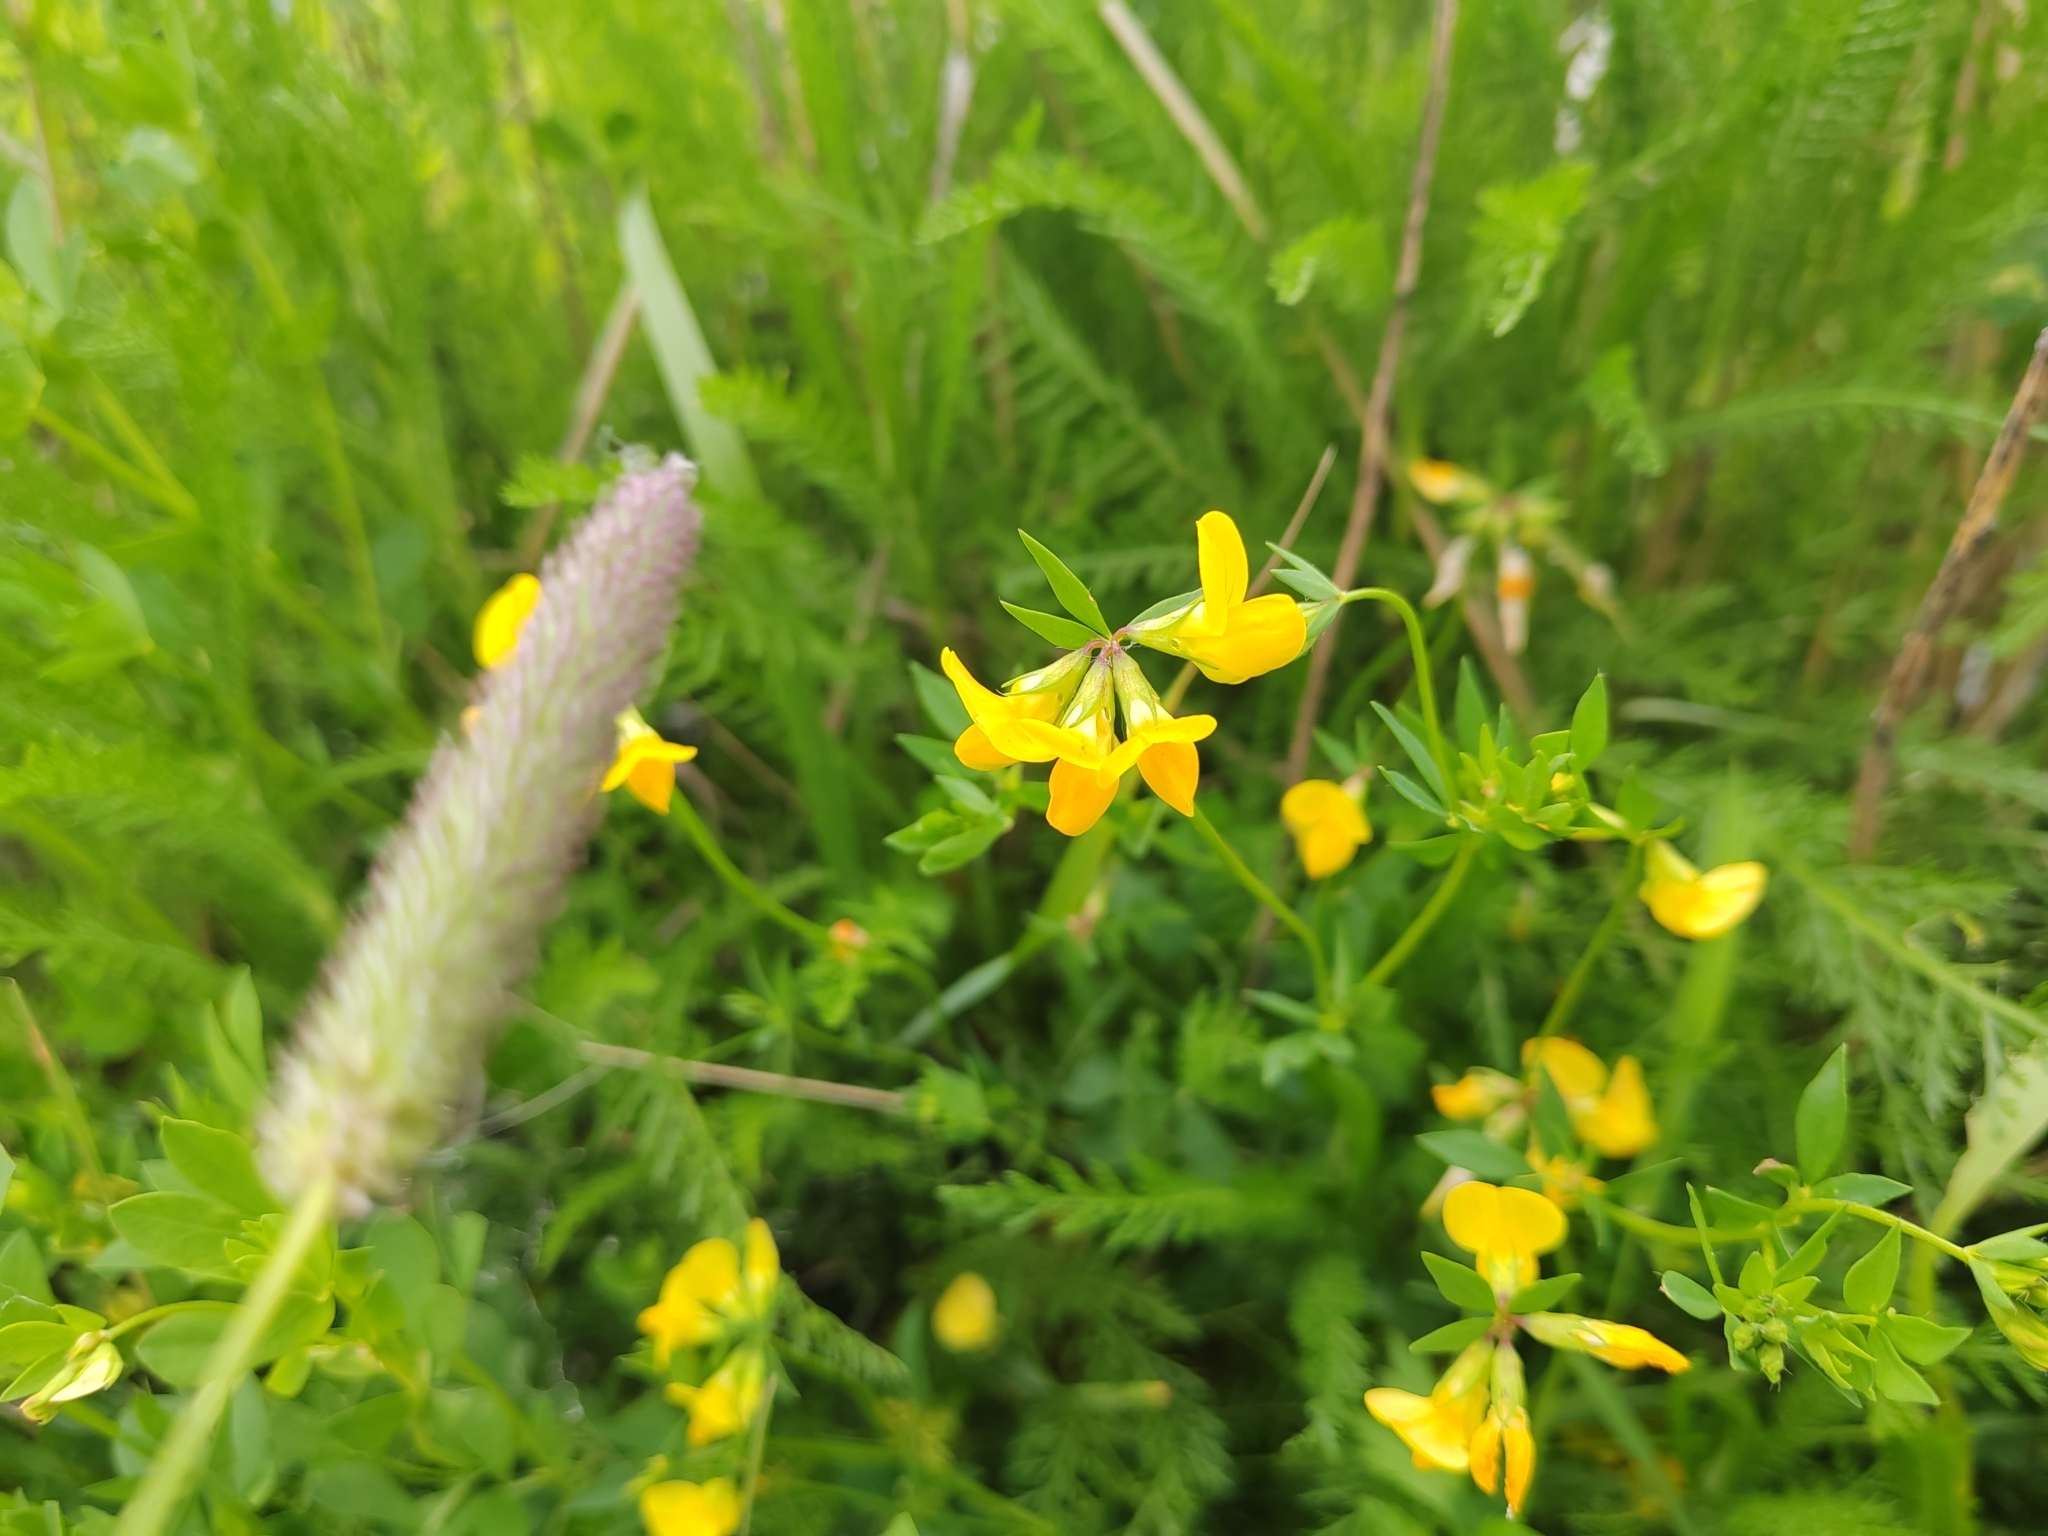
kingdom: Plantae
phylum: Tracheophyta
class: Magnoliopsida
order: Fabales
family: Fabaceae
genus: Lotus
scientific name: Lotus corniculatus
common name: Common bird's-foot-trefoil
